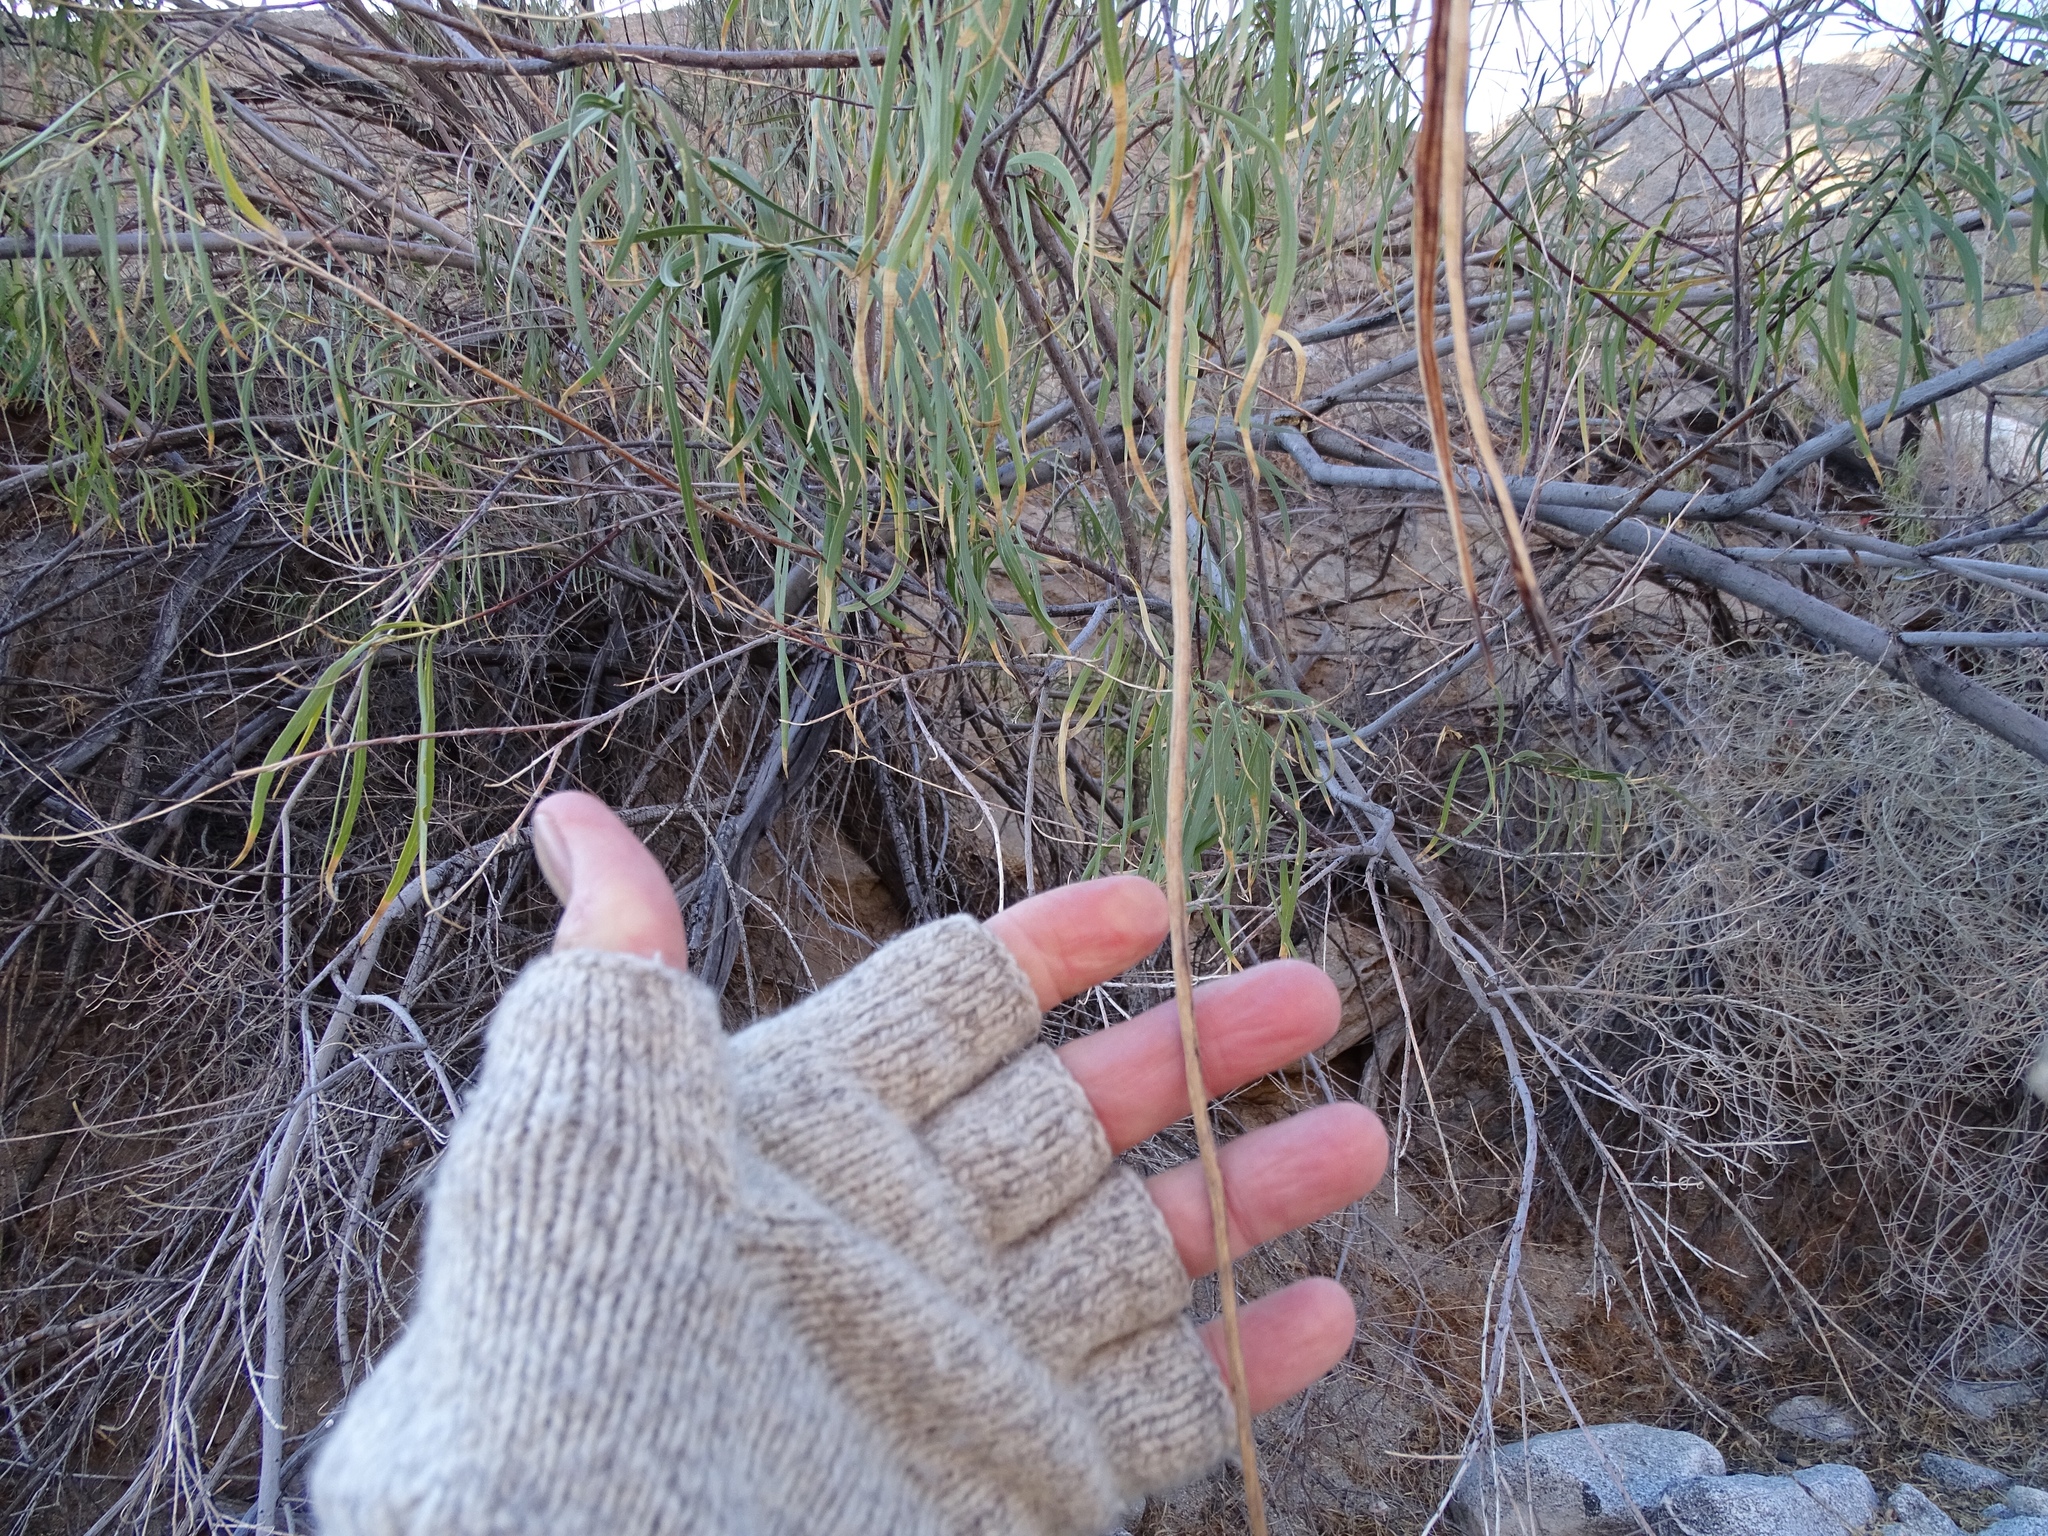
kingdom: Plantae
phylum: Tracheophyta
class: Magnoliopsida
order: Lamiales
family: Bignoniaceae
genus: Chilopsis
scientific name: Chilopsis linearis
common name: Desert-willow
